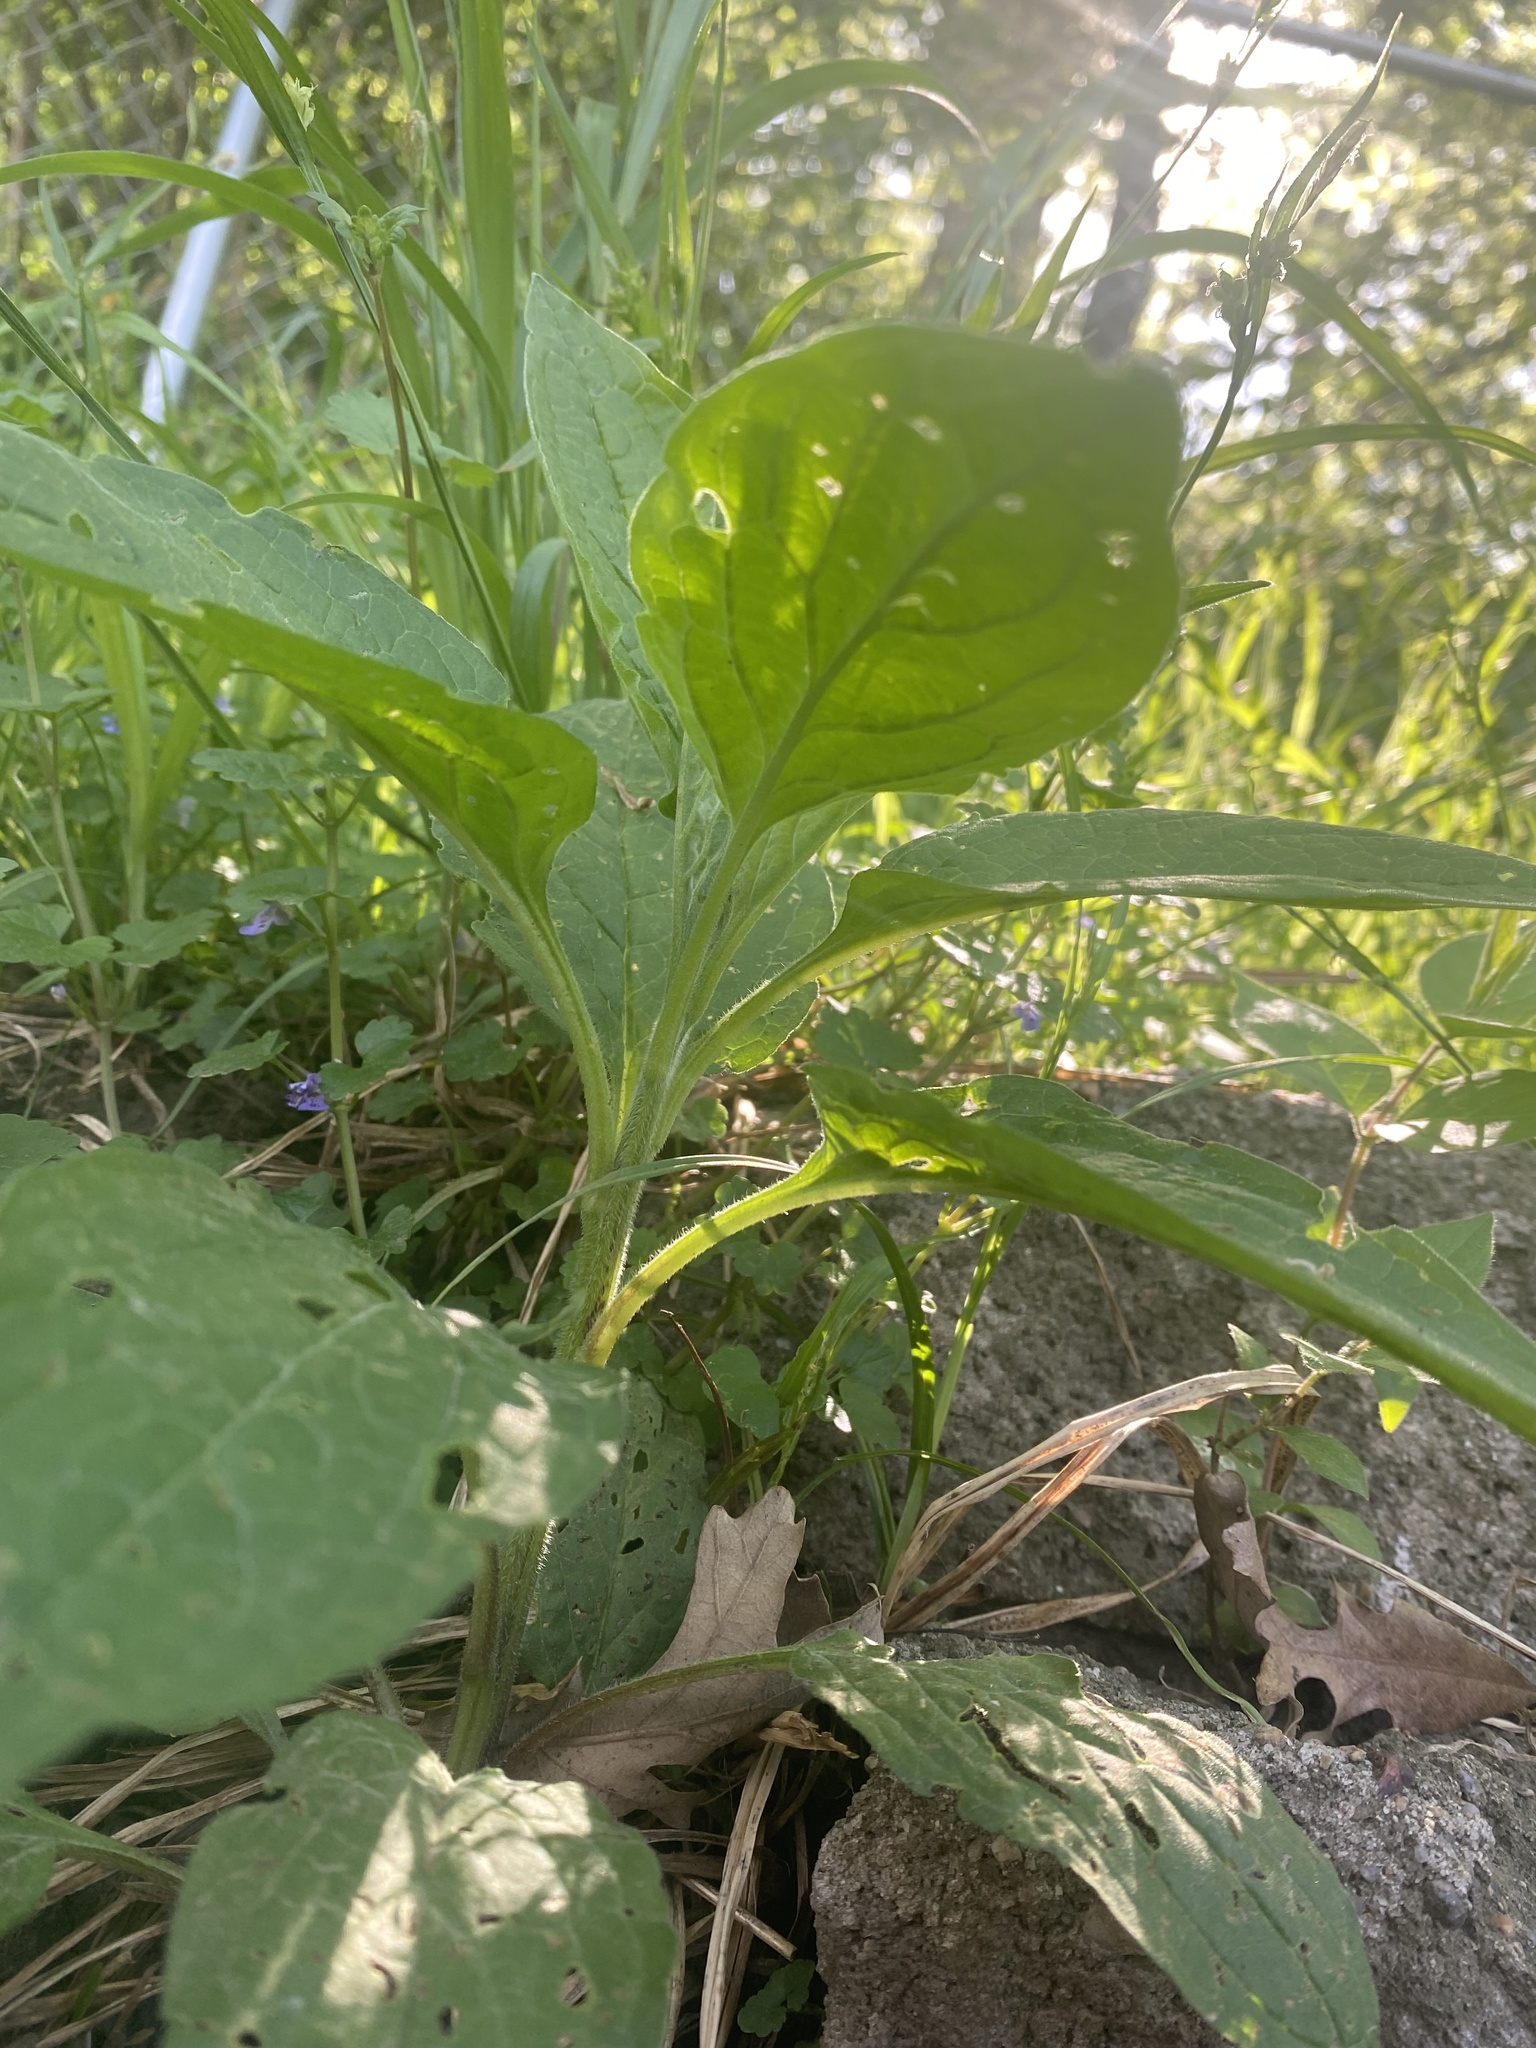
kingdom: Plantae
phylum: Tracheophyta
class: Magnoliopsida
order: Boraginales
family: Boraginaceae
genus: Hackelia
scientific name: Hackelia virginiana
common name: Beggar's-lice
